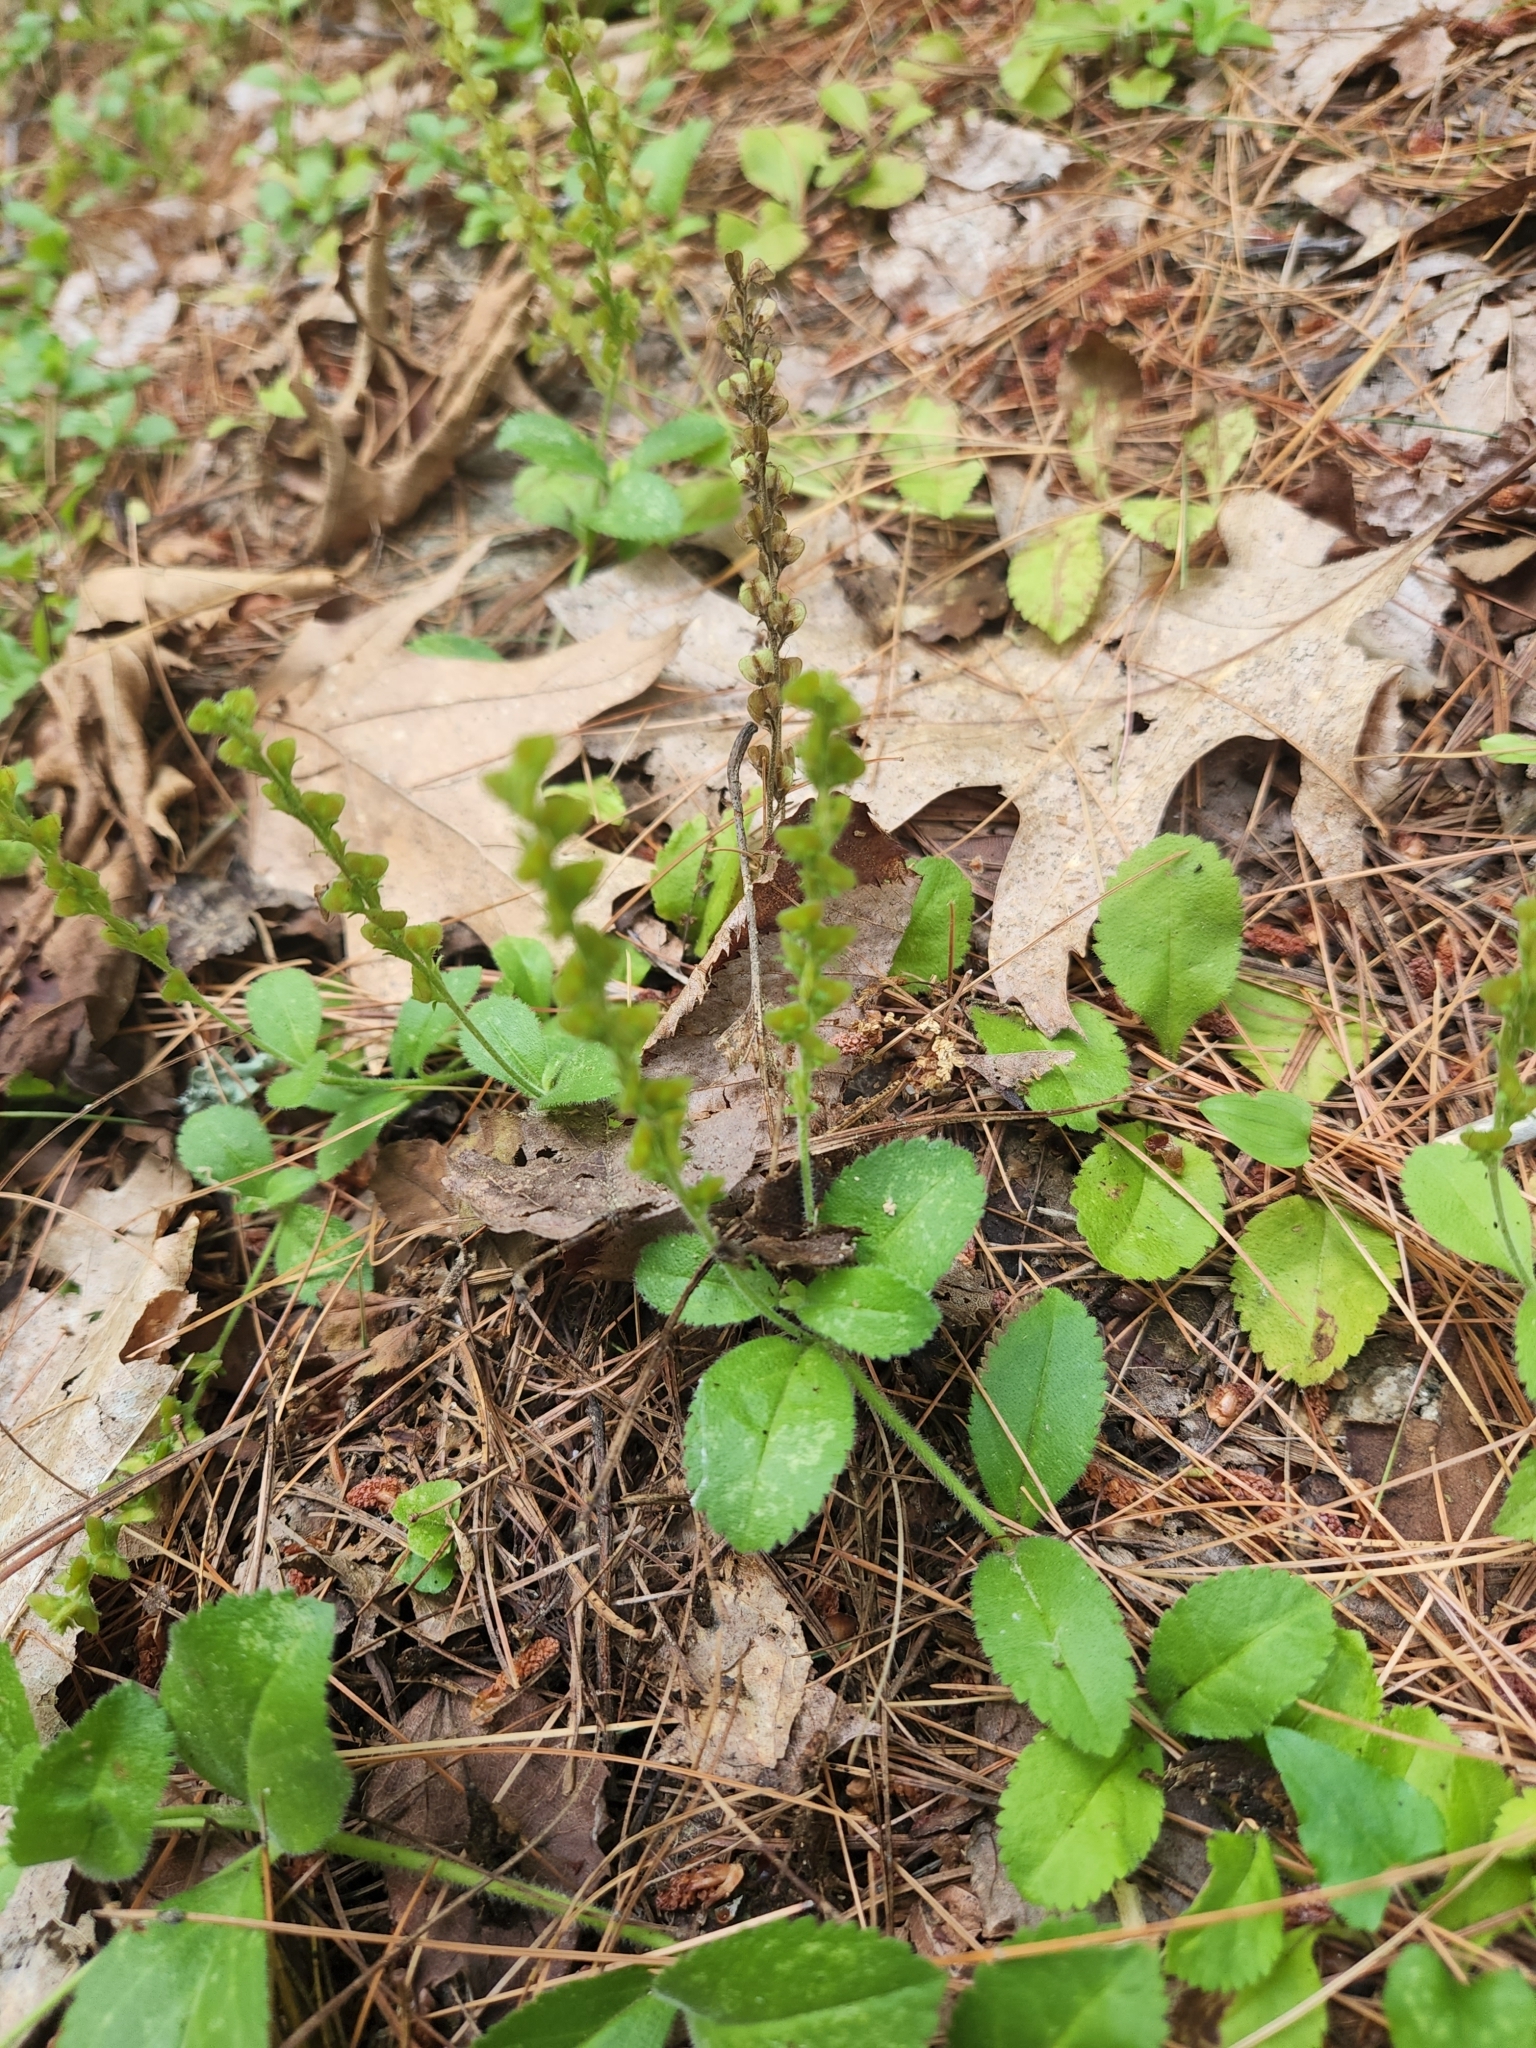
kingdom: Plantae
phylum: Tracheophyta
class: Magnoliopsida
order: Lamiales
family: Plantaginaceae
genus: Veronica
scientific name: Veronica officinalis
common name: Common speedwell
